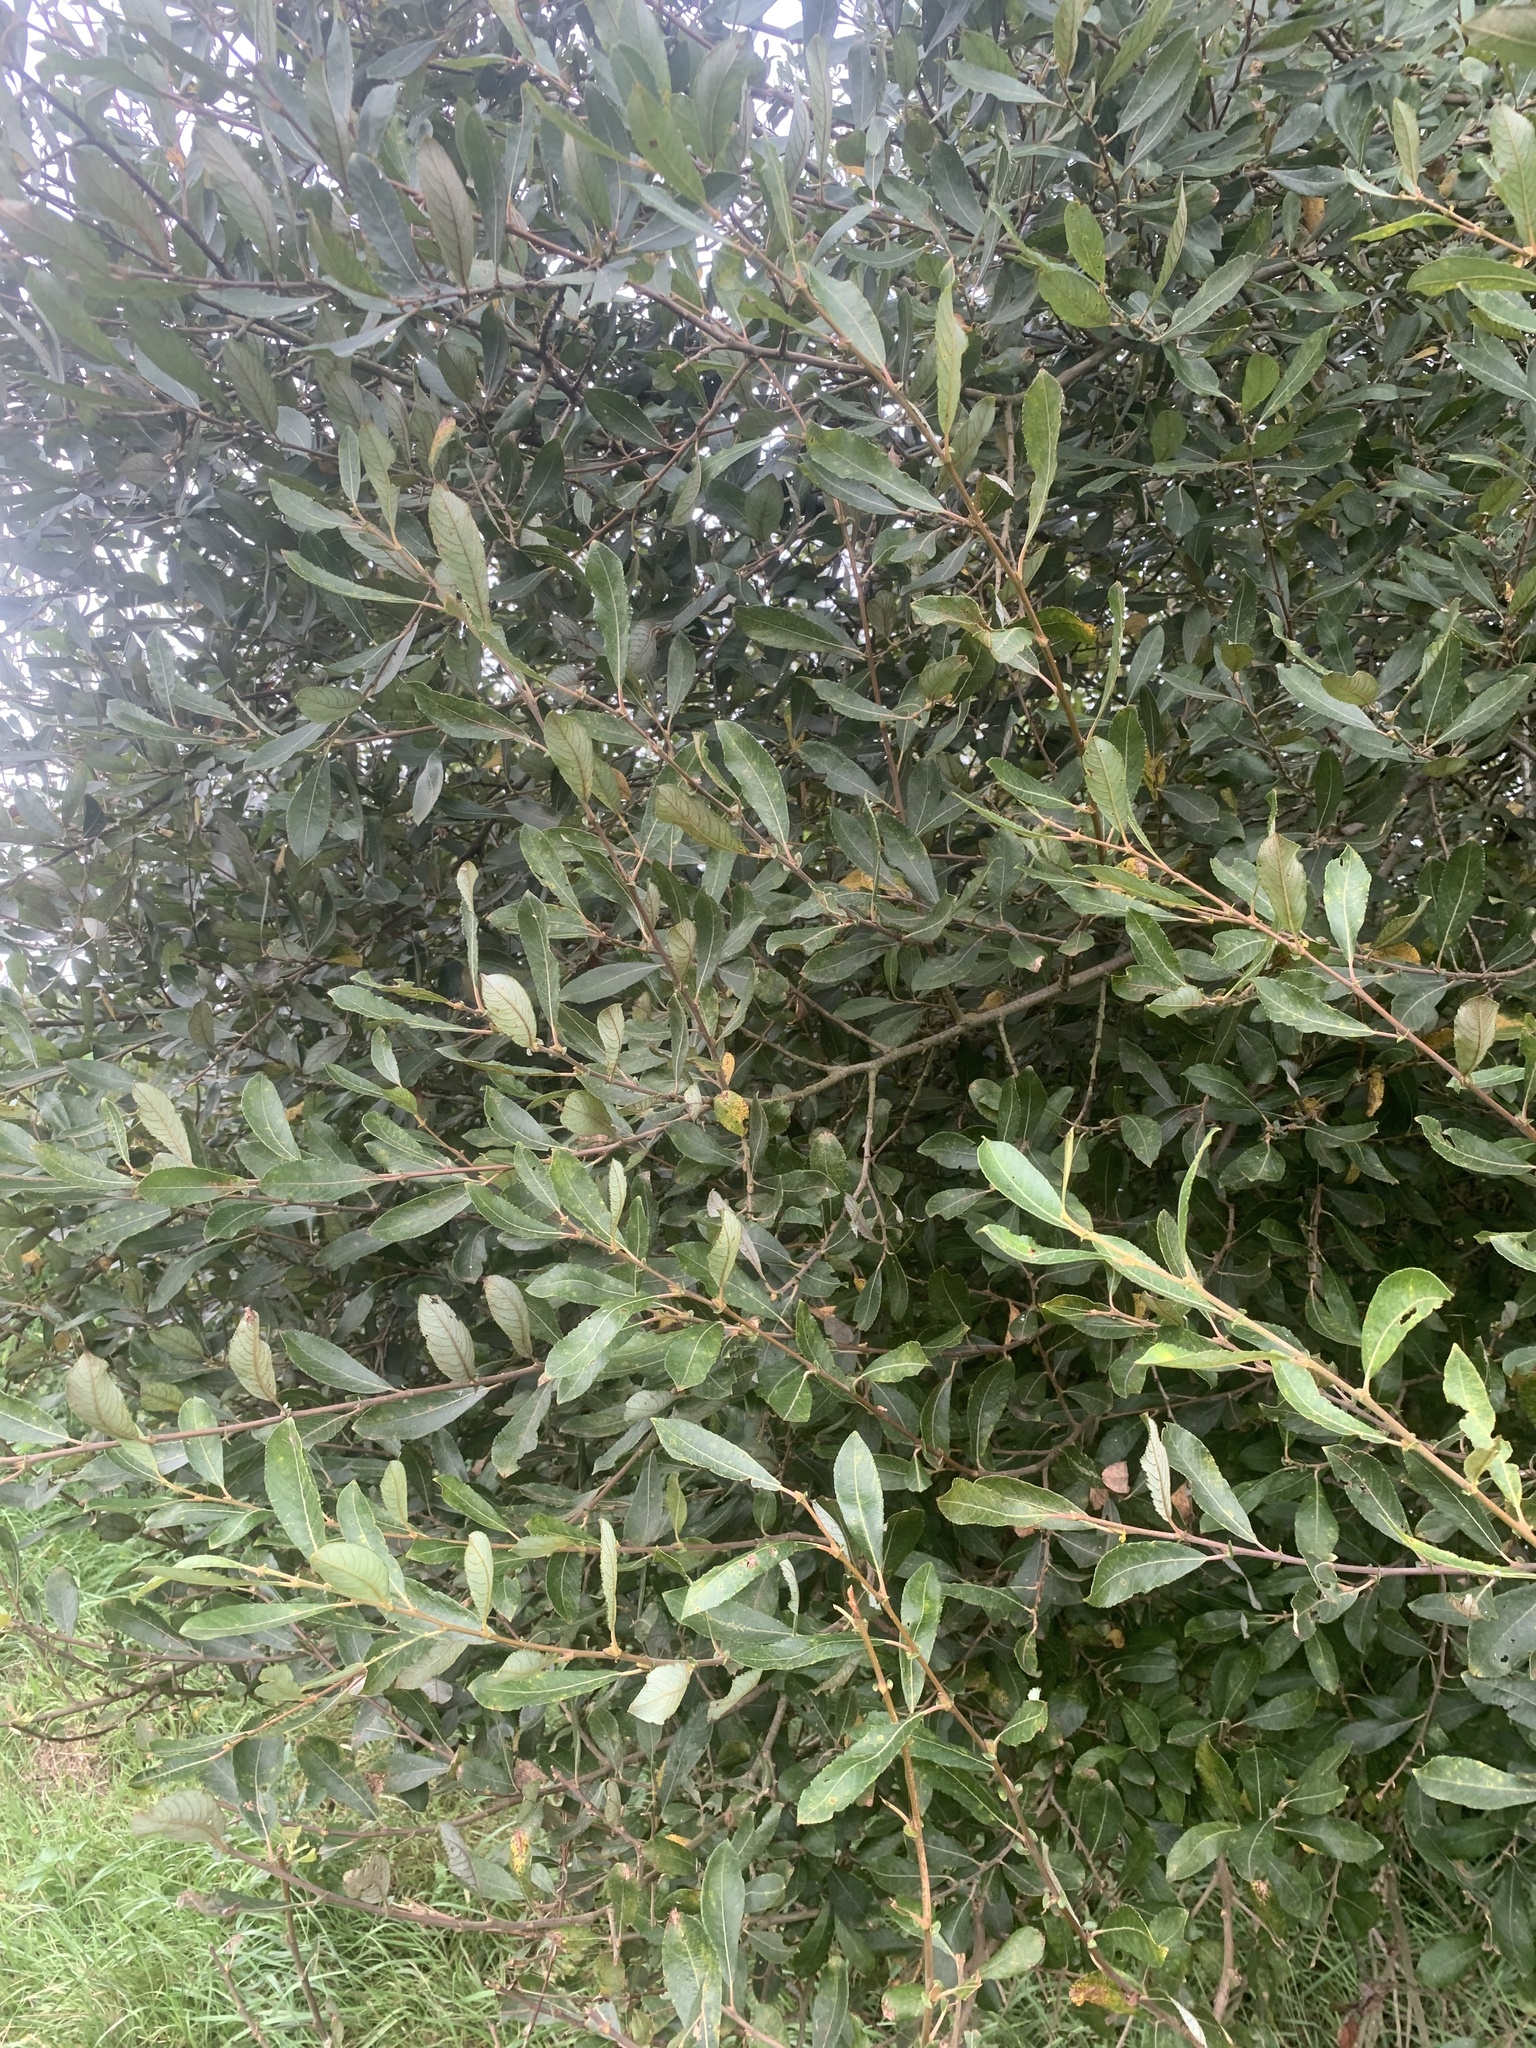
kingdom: Plantae
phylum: Tracheophyta
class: Magnoliopsida
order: Malpighiales
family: Salicaceae
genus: Salix
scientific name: Salix atrocinerea
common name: Rusty willow
